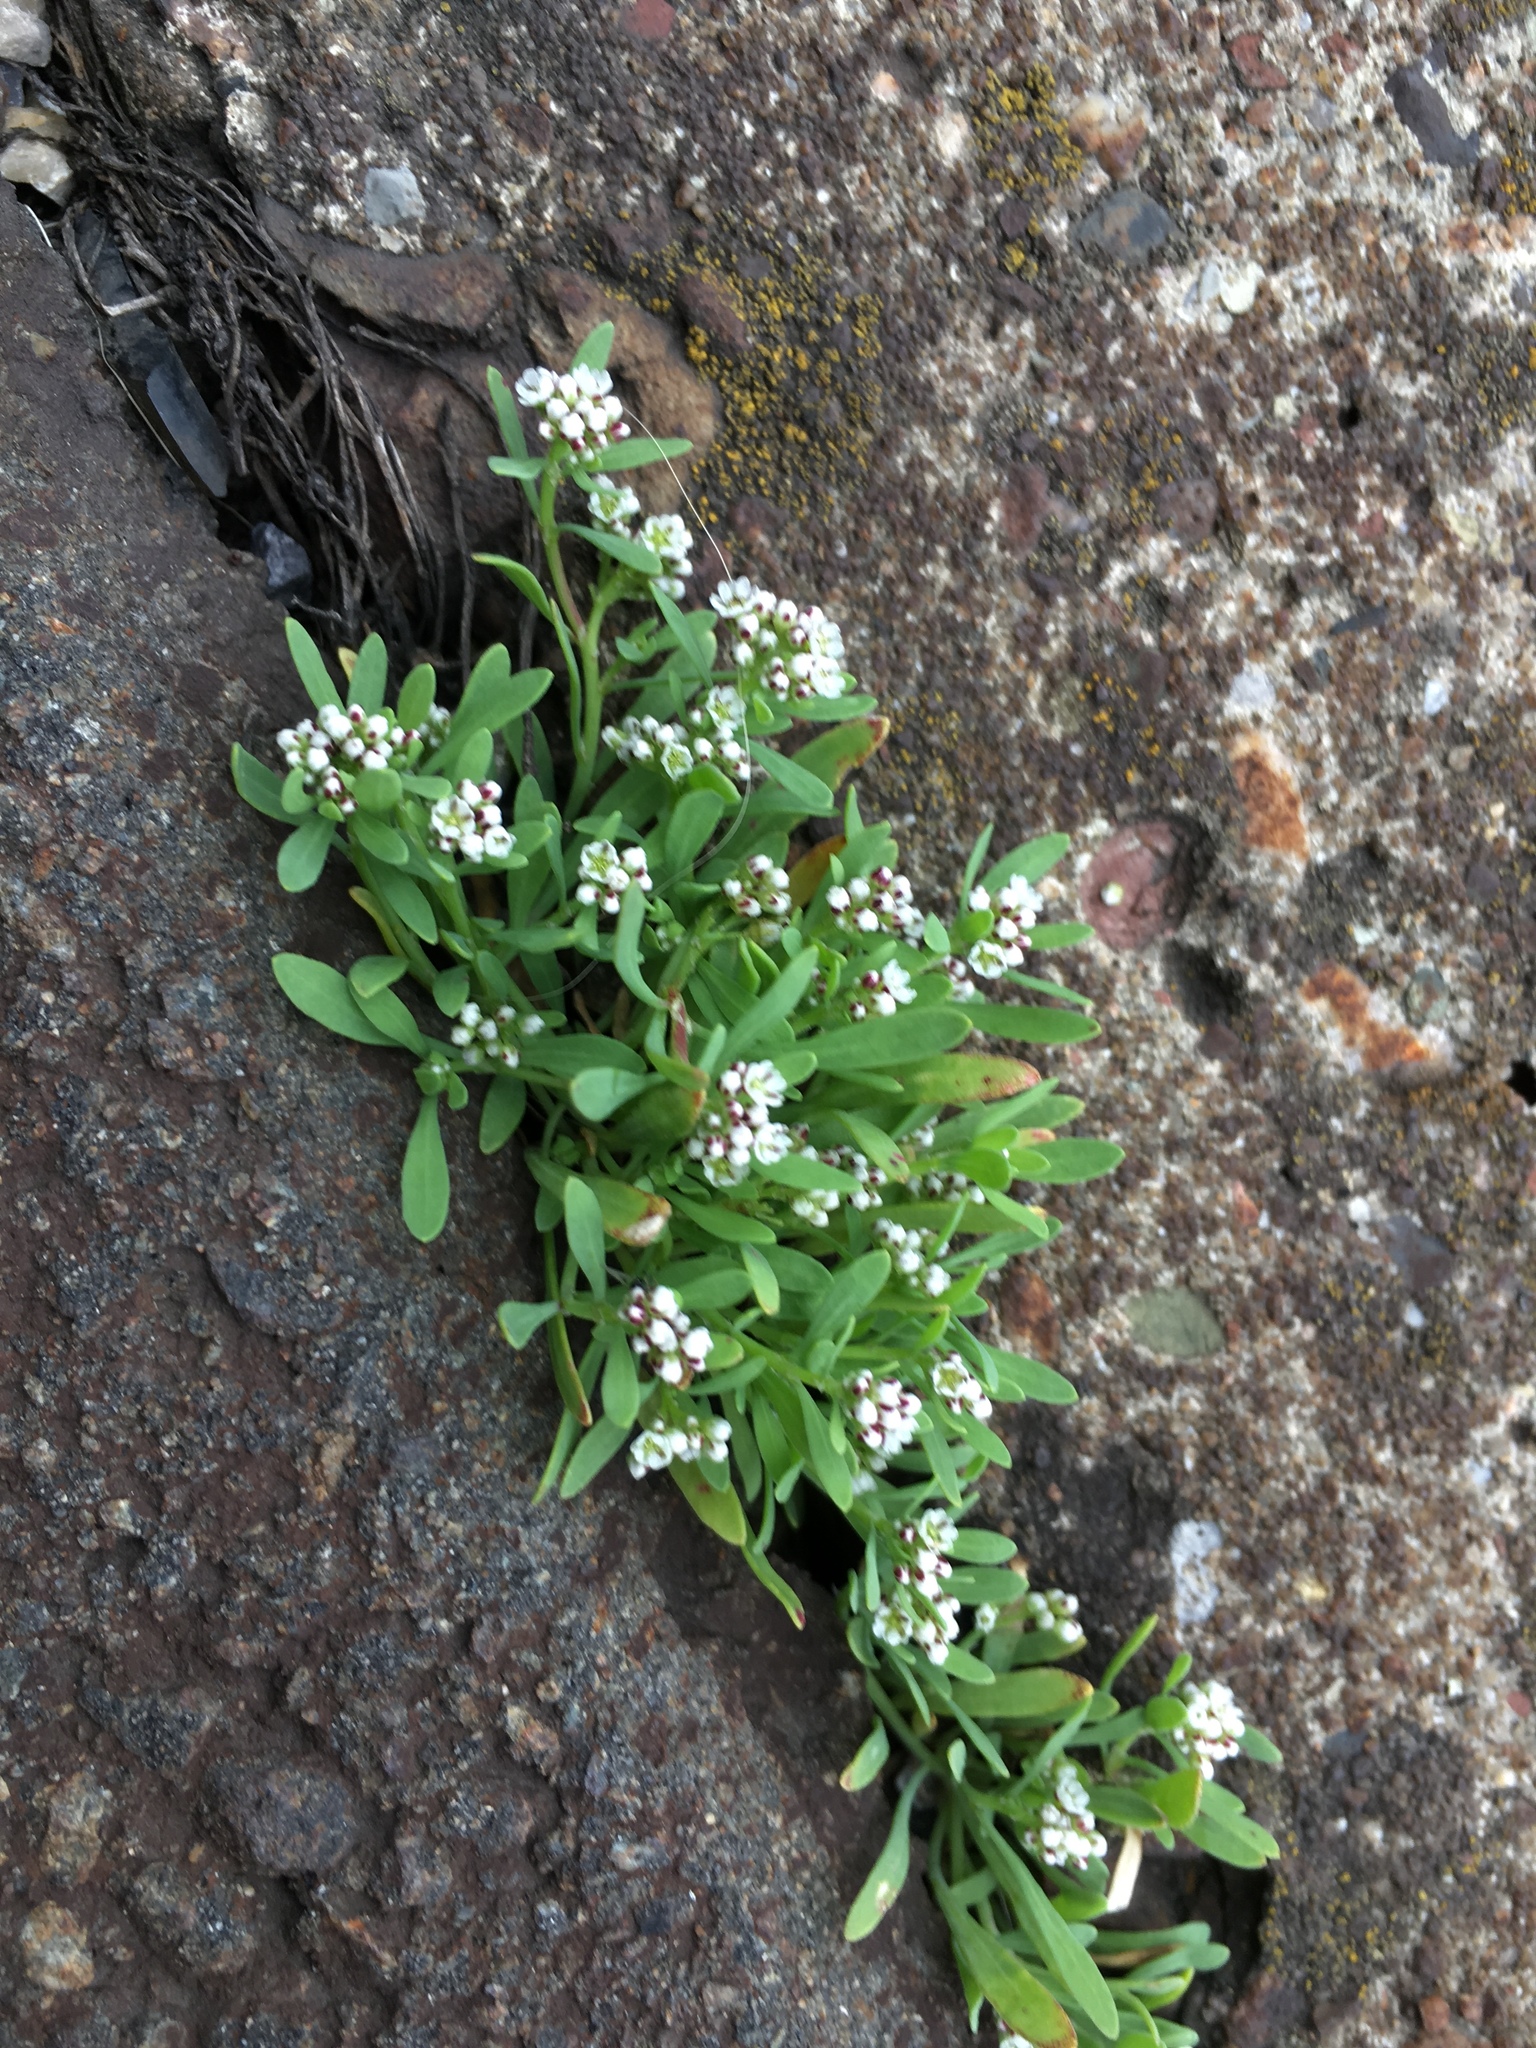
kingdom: Plantae
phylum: Tracheophyta
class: Magnoliopsida
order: Brassicales
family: Brassicaceae
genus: Lobularia
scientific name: Lobularia maritima
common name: Sweet alison
